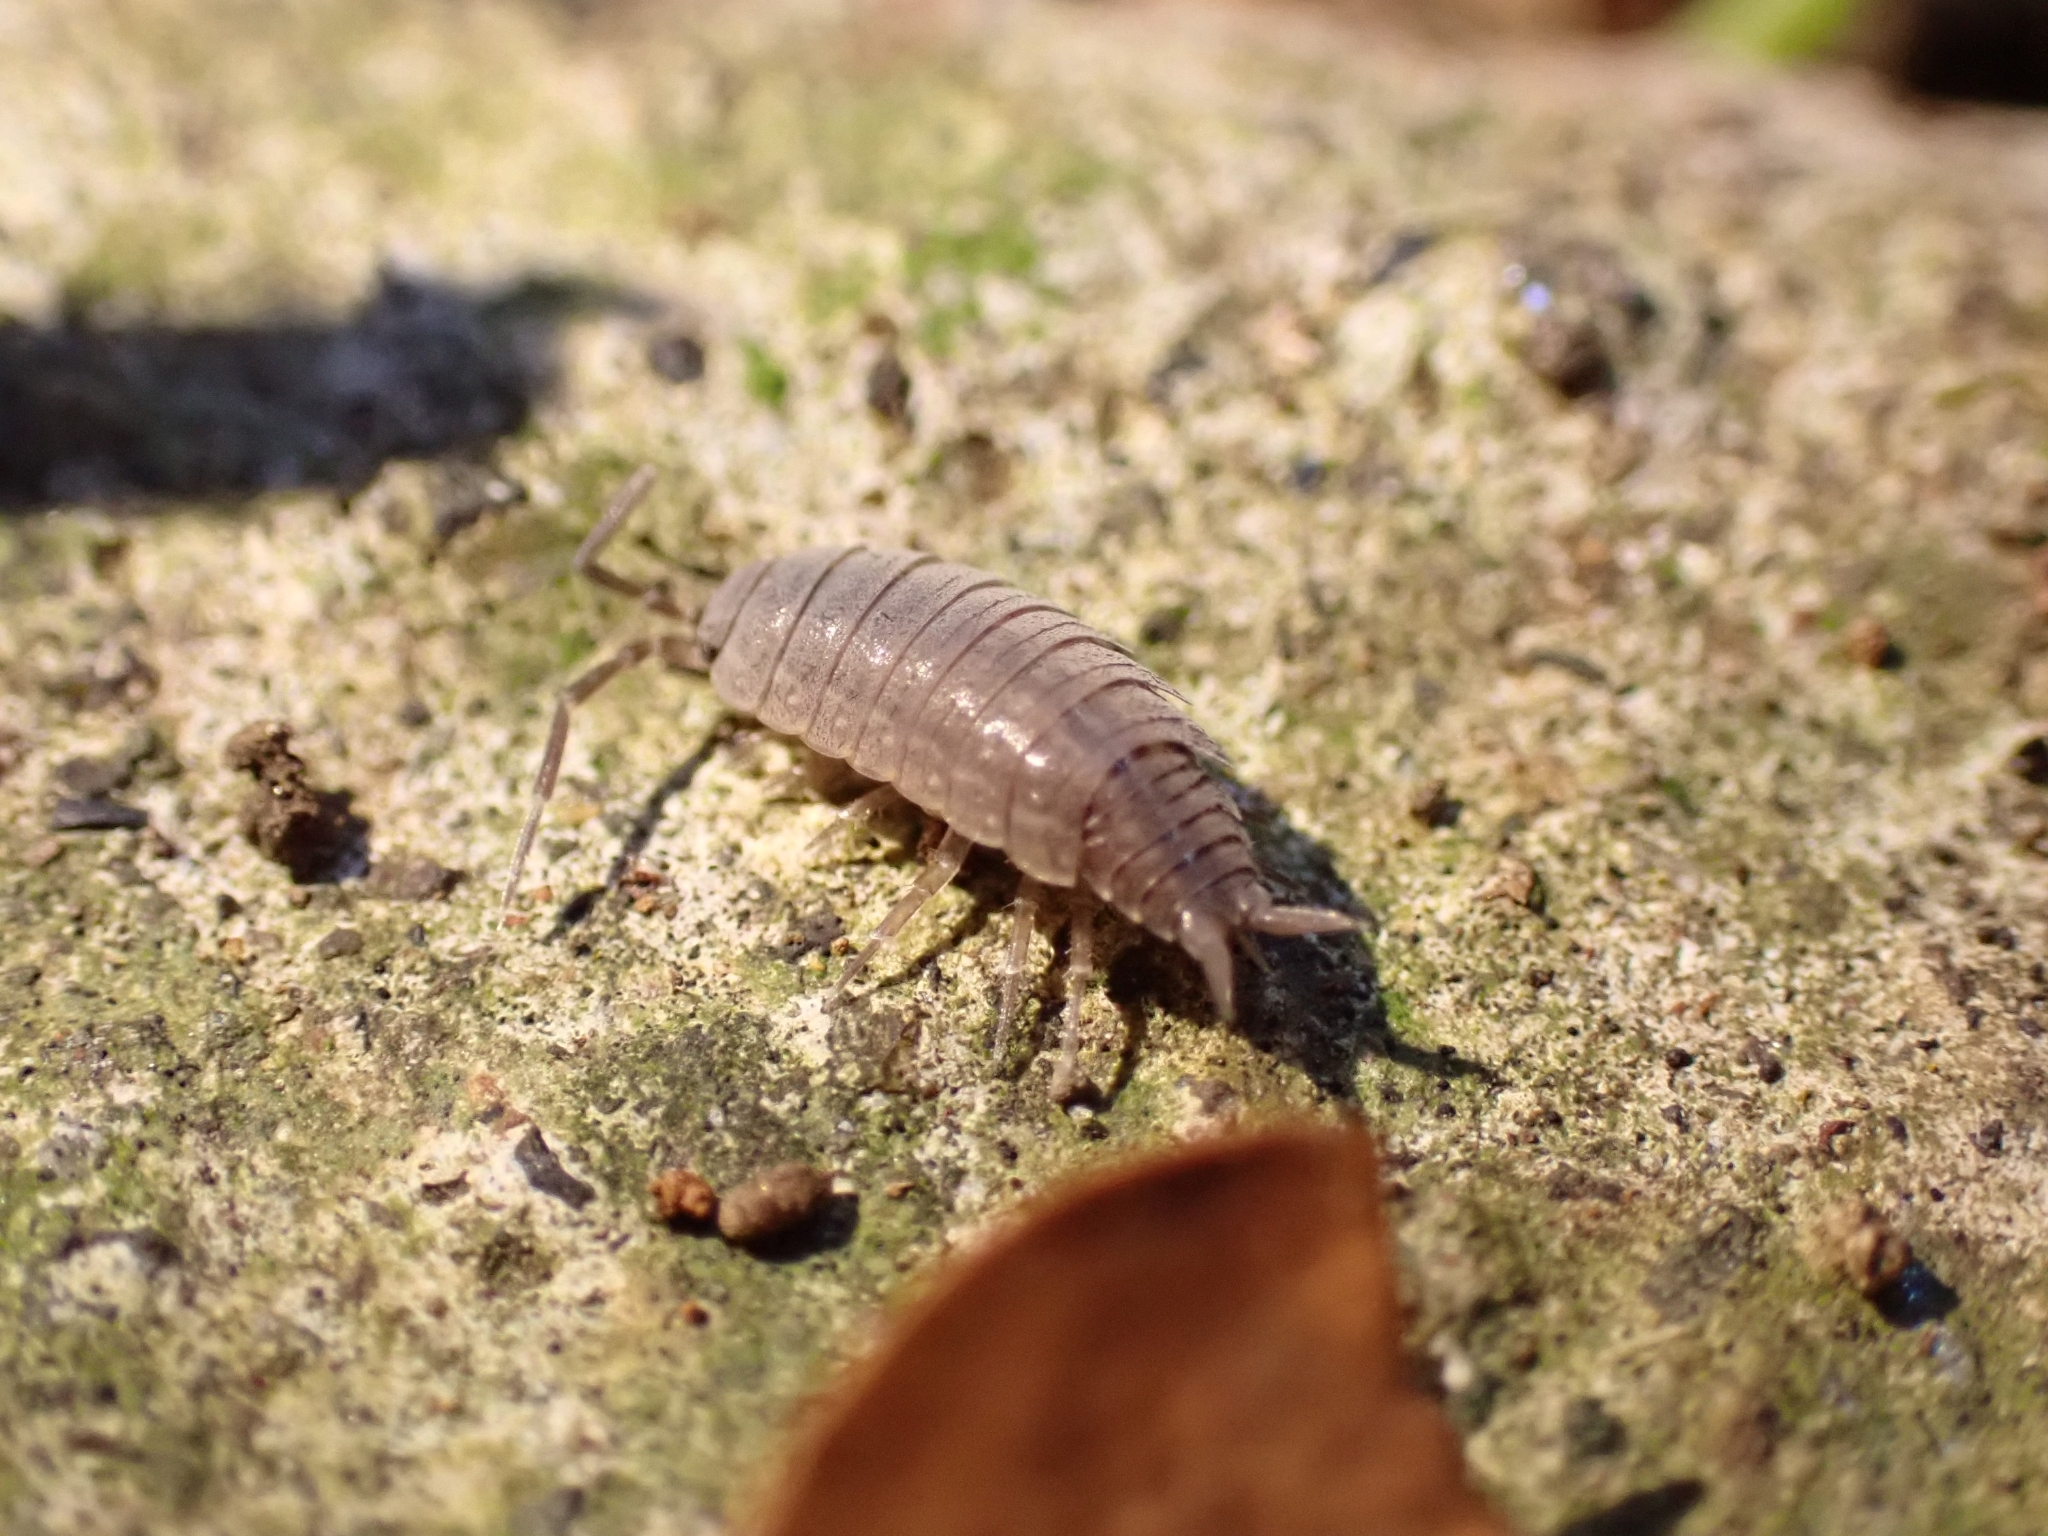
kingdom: Animalia
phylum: Arthropoda
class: Malacostraca
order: Isopoda
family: Porcellionidae
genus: Porcellionides
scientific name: Porcellionides sexfasciatus
